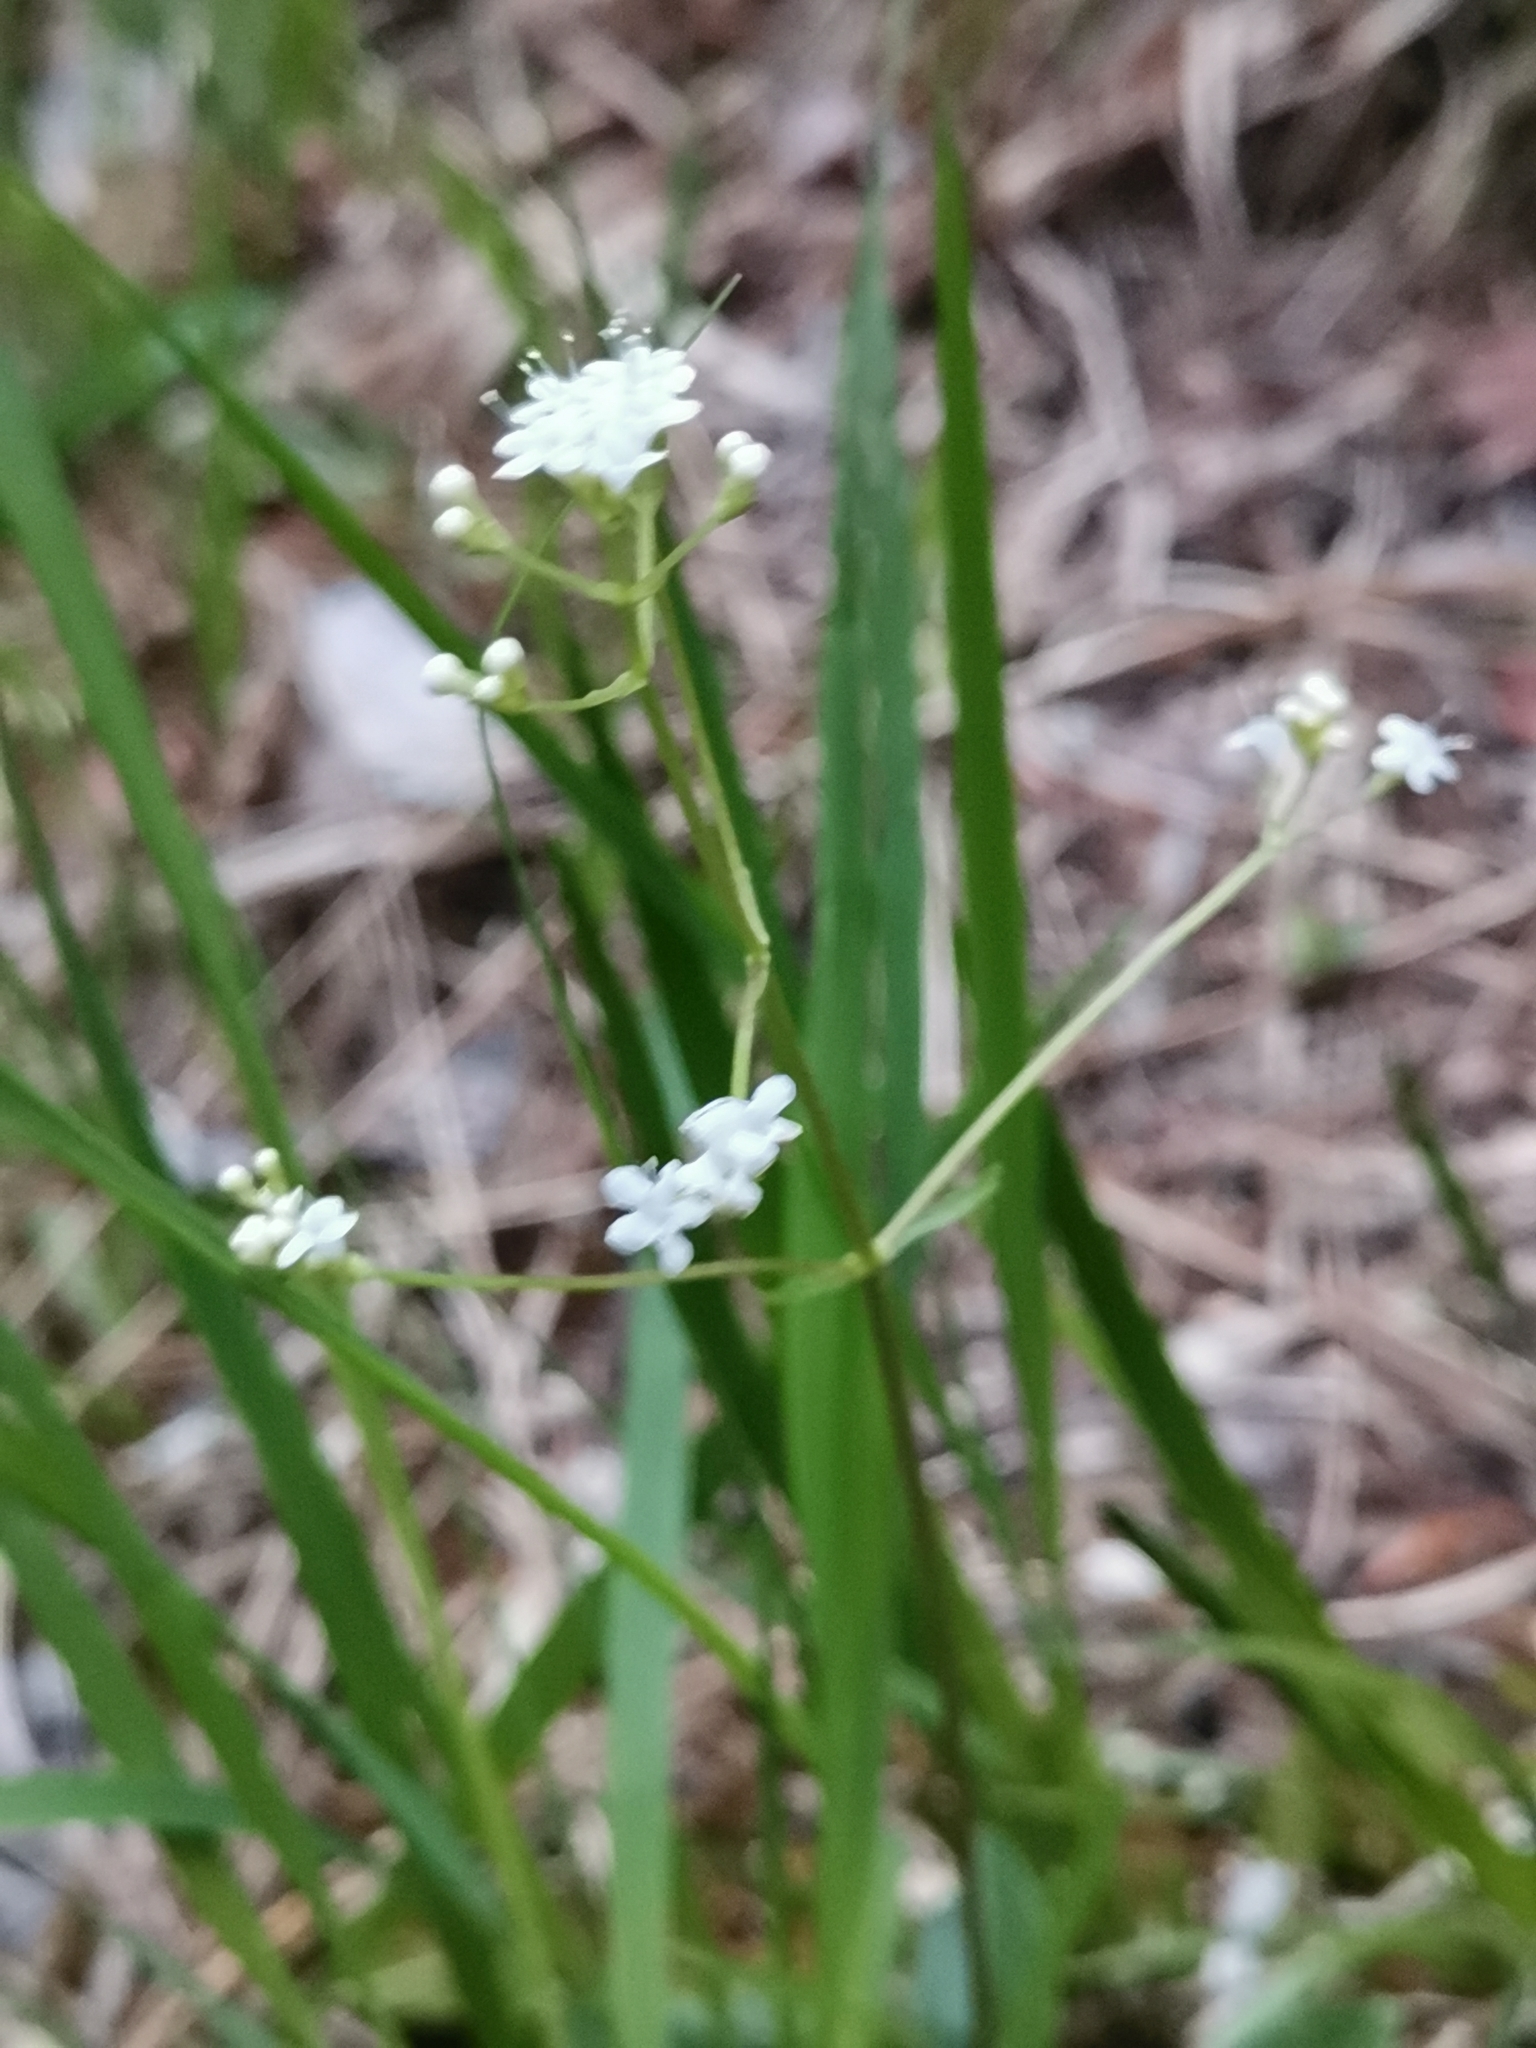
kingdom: Plantae
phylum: Tracheophyta
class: Magnoliopsida
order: Dipsacales
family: Caprifoliaceae
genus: Valeriana
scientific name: Valeriana saxatilis
